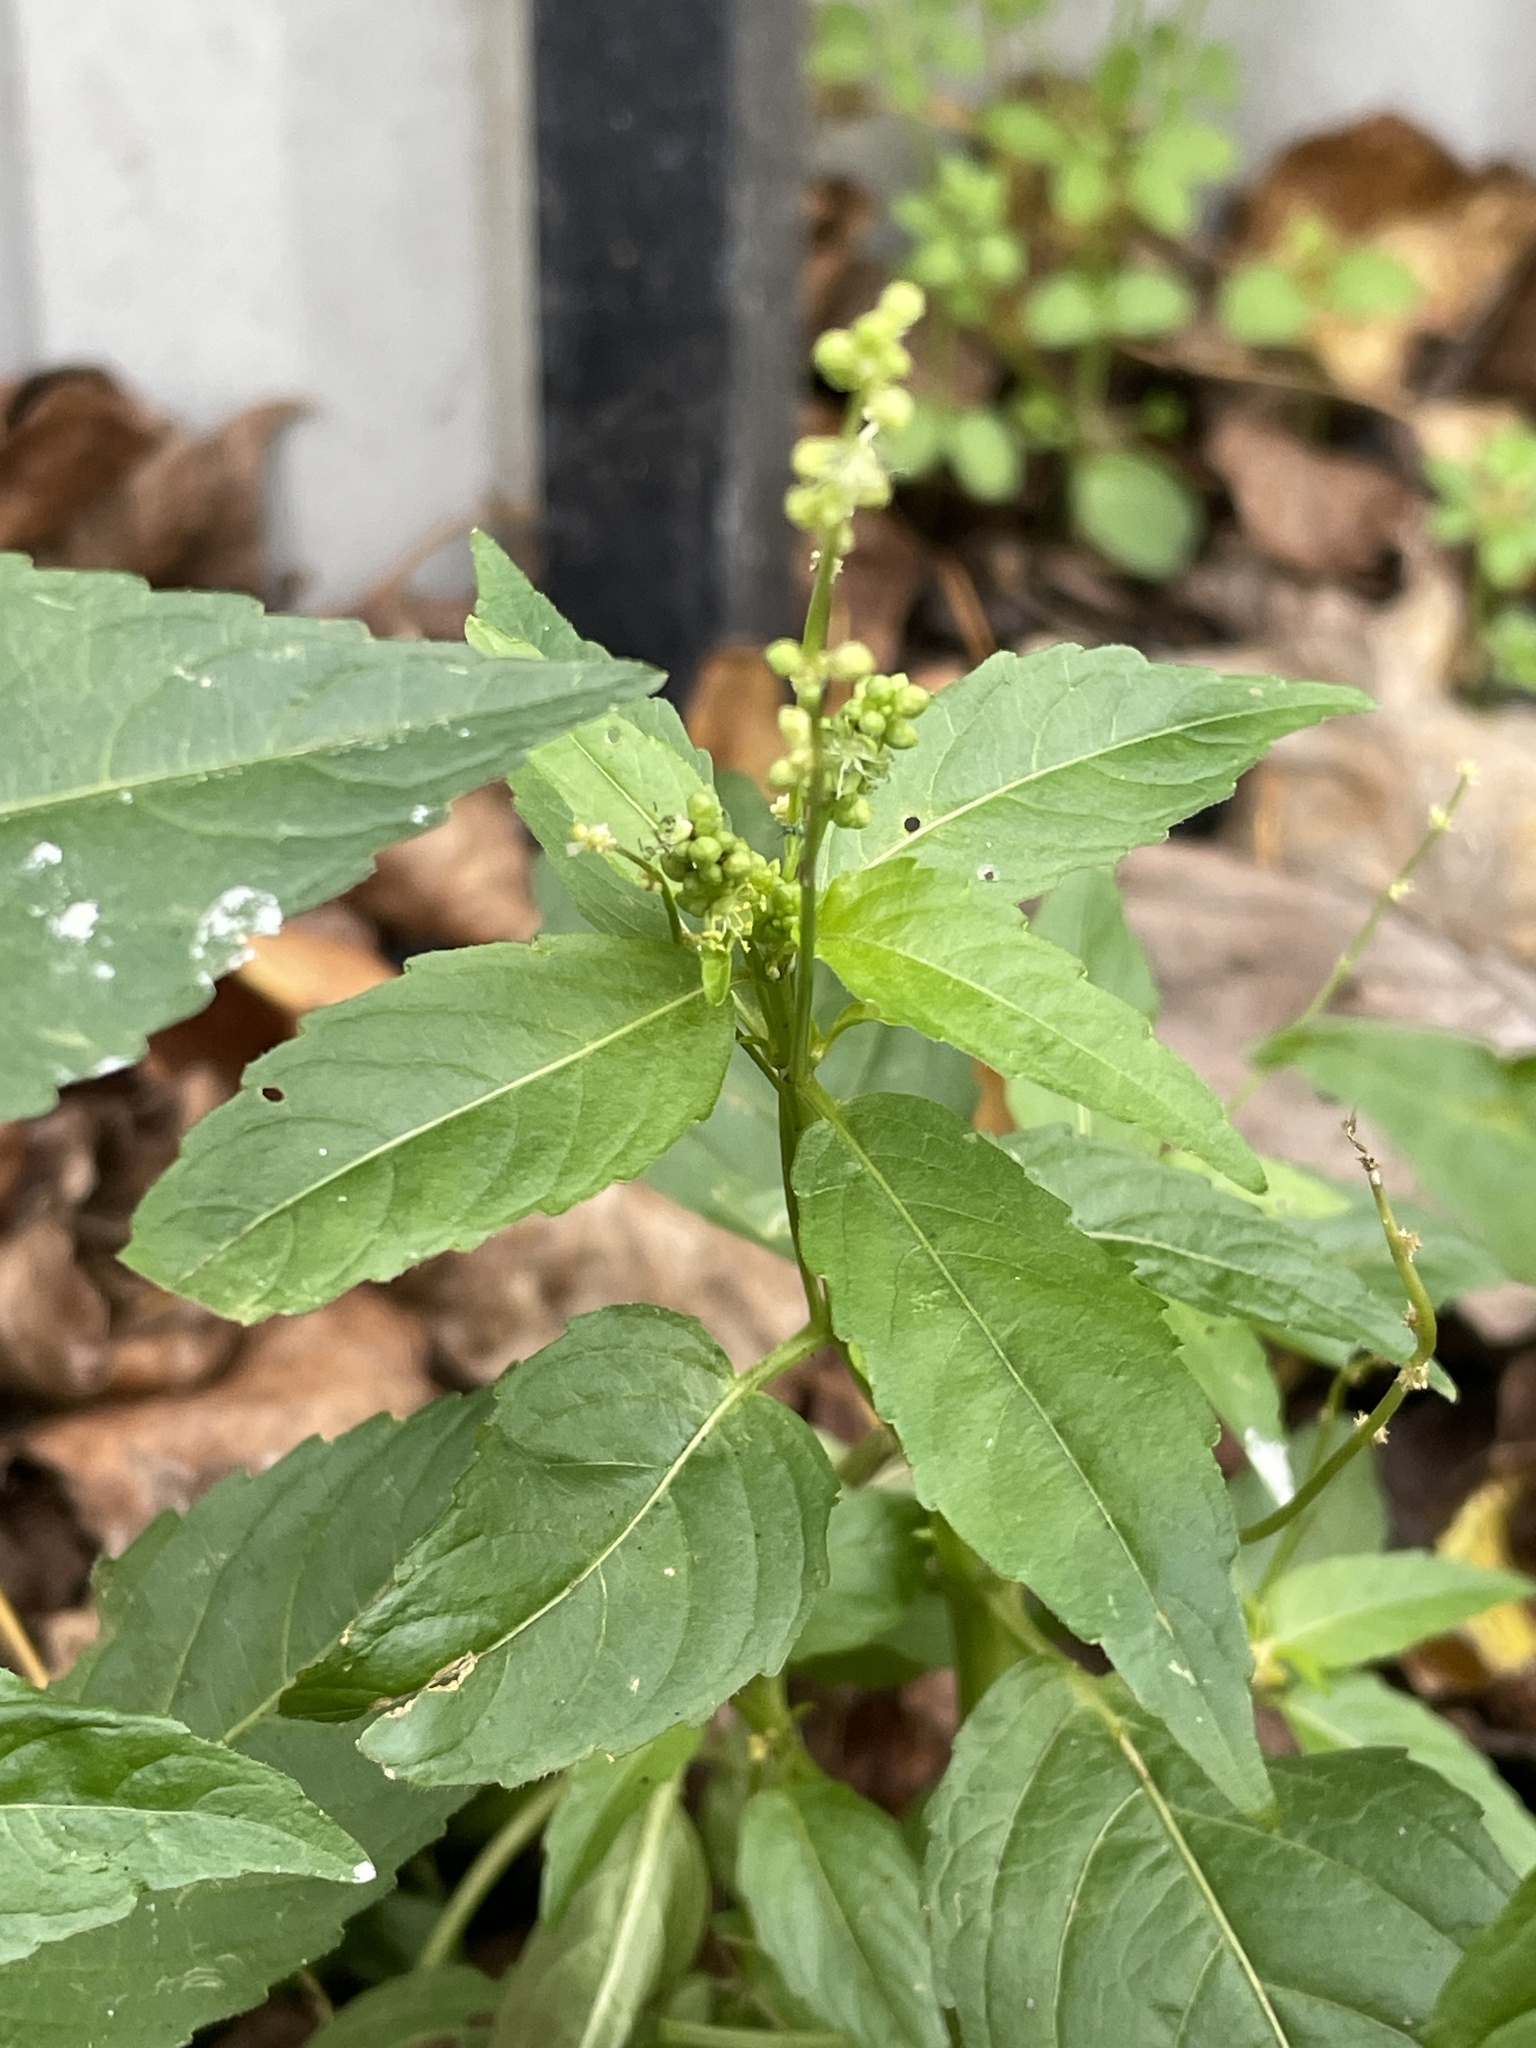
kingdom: Plantae
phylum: Tracheophyta
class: Magnoliopsida
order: Malpighiales
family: Euphorbiaceae
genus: Mercurialis
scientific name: Mercurialis annua
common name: Annual mercury
